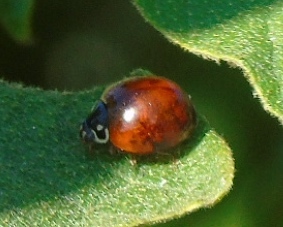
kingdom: Animalia
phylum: Arthropoda
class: Insecta
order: Coleoptera
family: Coccinellidae
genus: Cycloneda
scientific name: Cycloneda sanguinea
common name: Ladybird beetle
